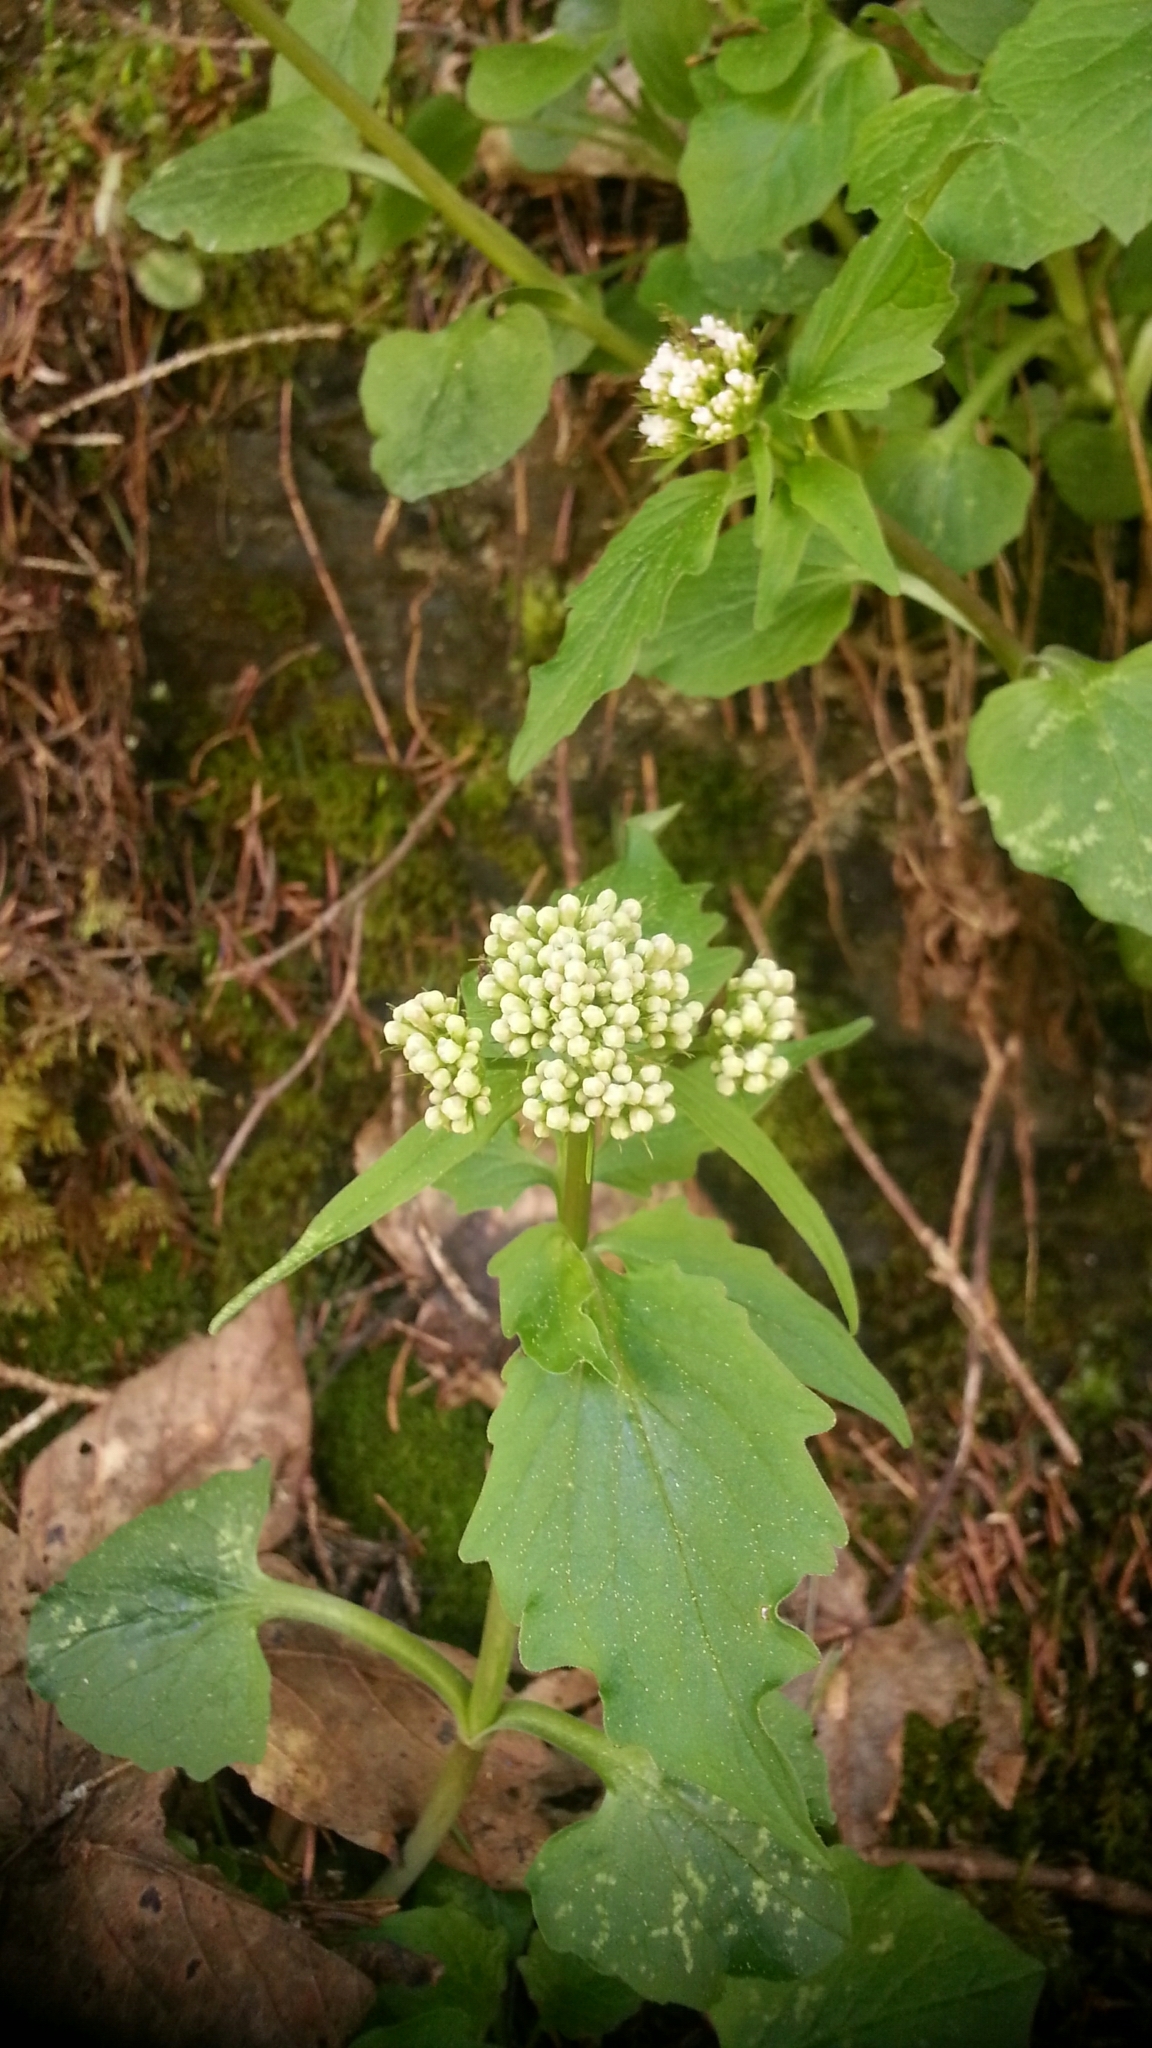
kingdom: Plantae
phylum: Tracheophyta
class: Magnoliopsida
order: Dipsacales
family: Caprifoliaceae
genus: Valeriana
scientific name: Valeriana tripteris
